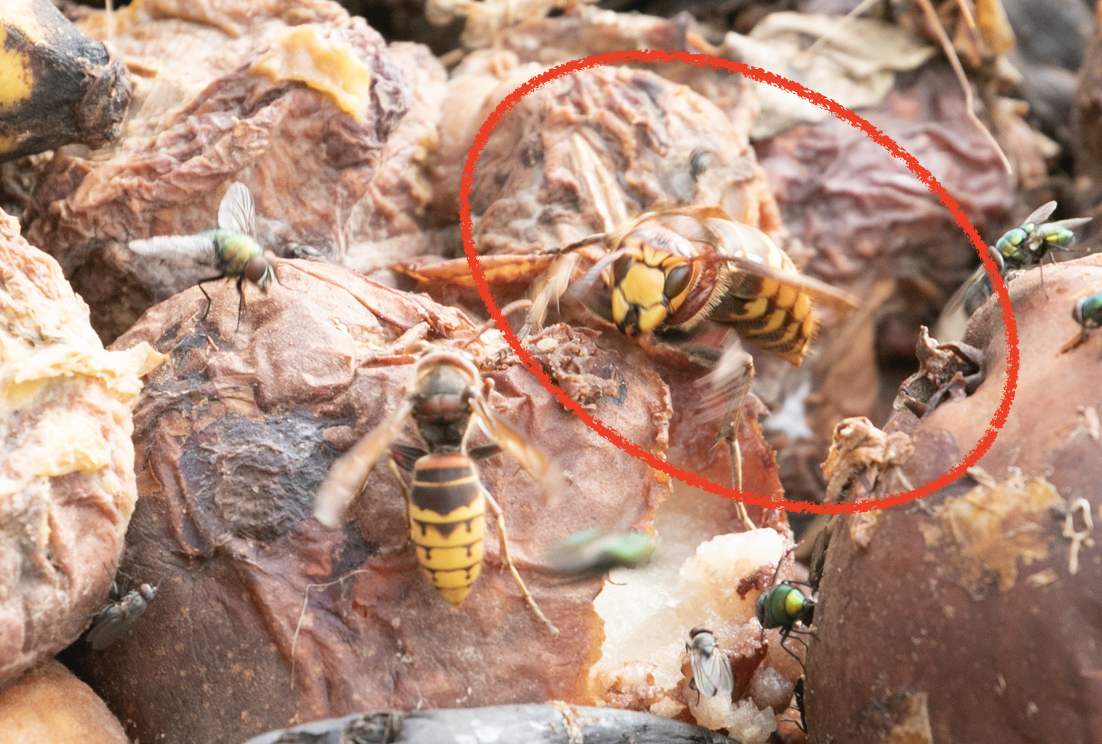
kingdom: Animalia
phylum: Arthropoda
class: Insecta
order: Hymenoptera
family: Vespidae
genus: Vespa
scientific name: Vespa crabro
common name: Hornet
